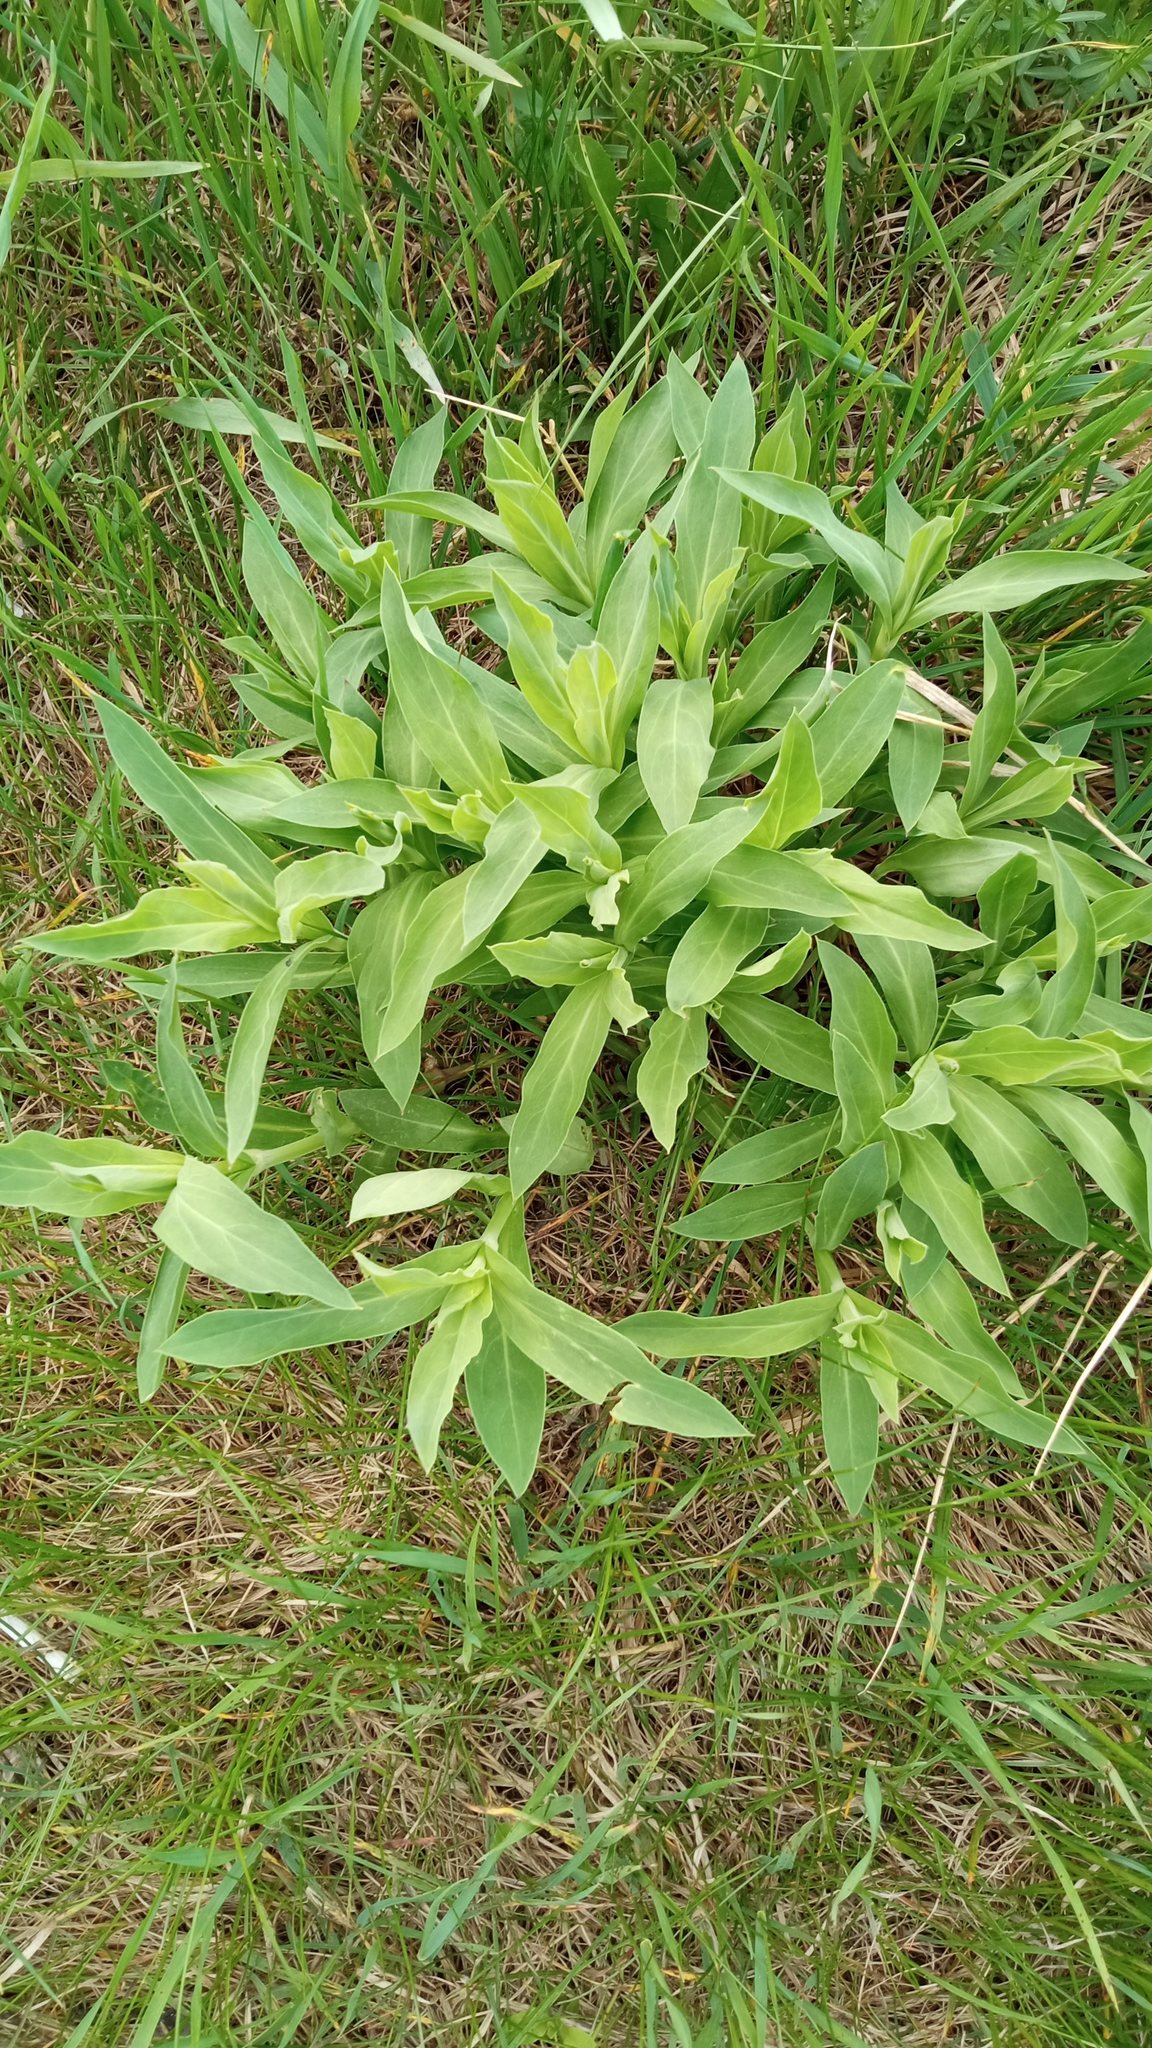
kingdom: Plantae
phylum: Tracheophyta
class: Magnoliopsida
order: Caryophyllales
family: Caryophyllaceae
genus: Silene
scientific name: Silene vulgaris
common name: Bladder campion
